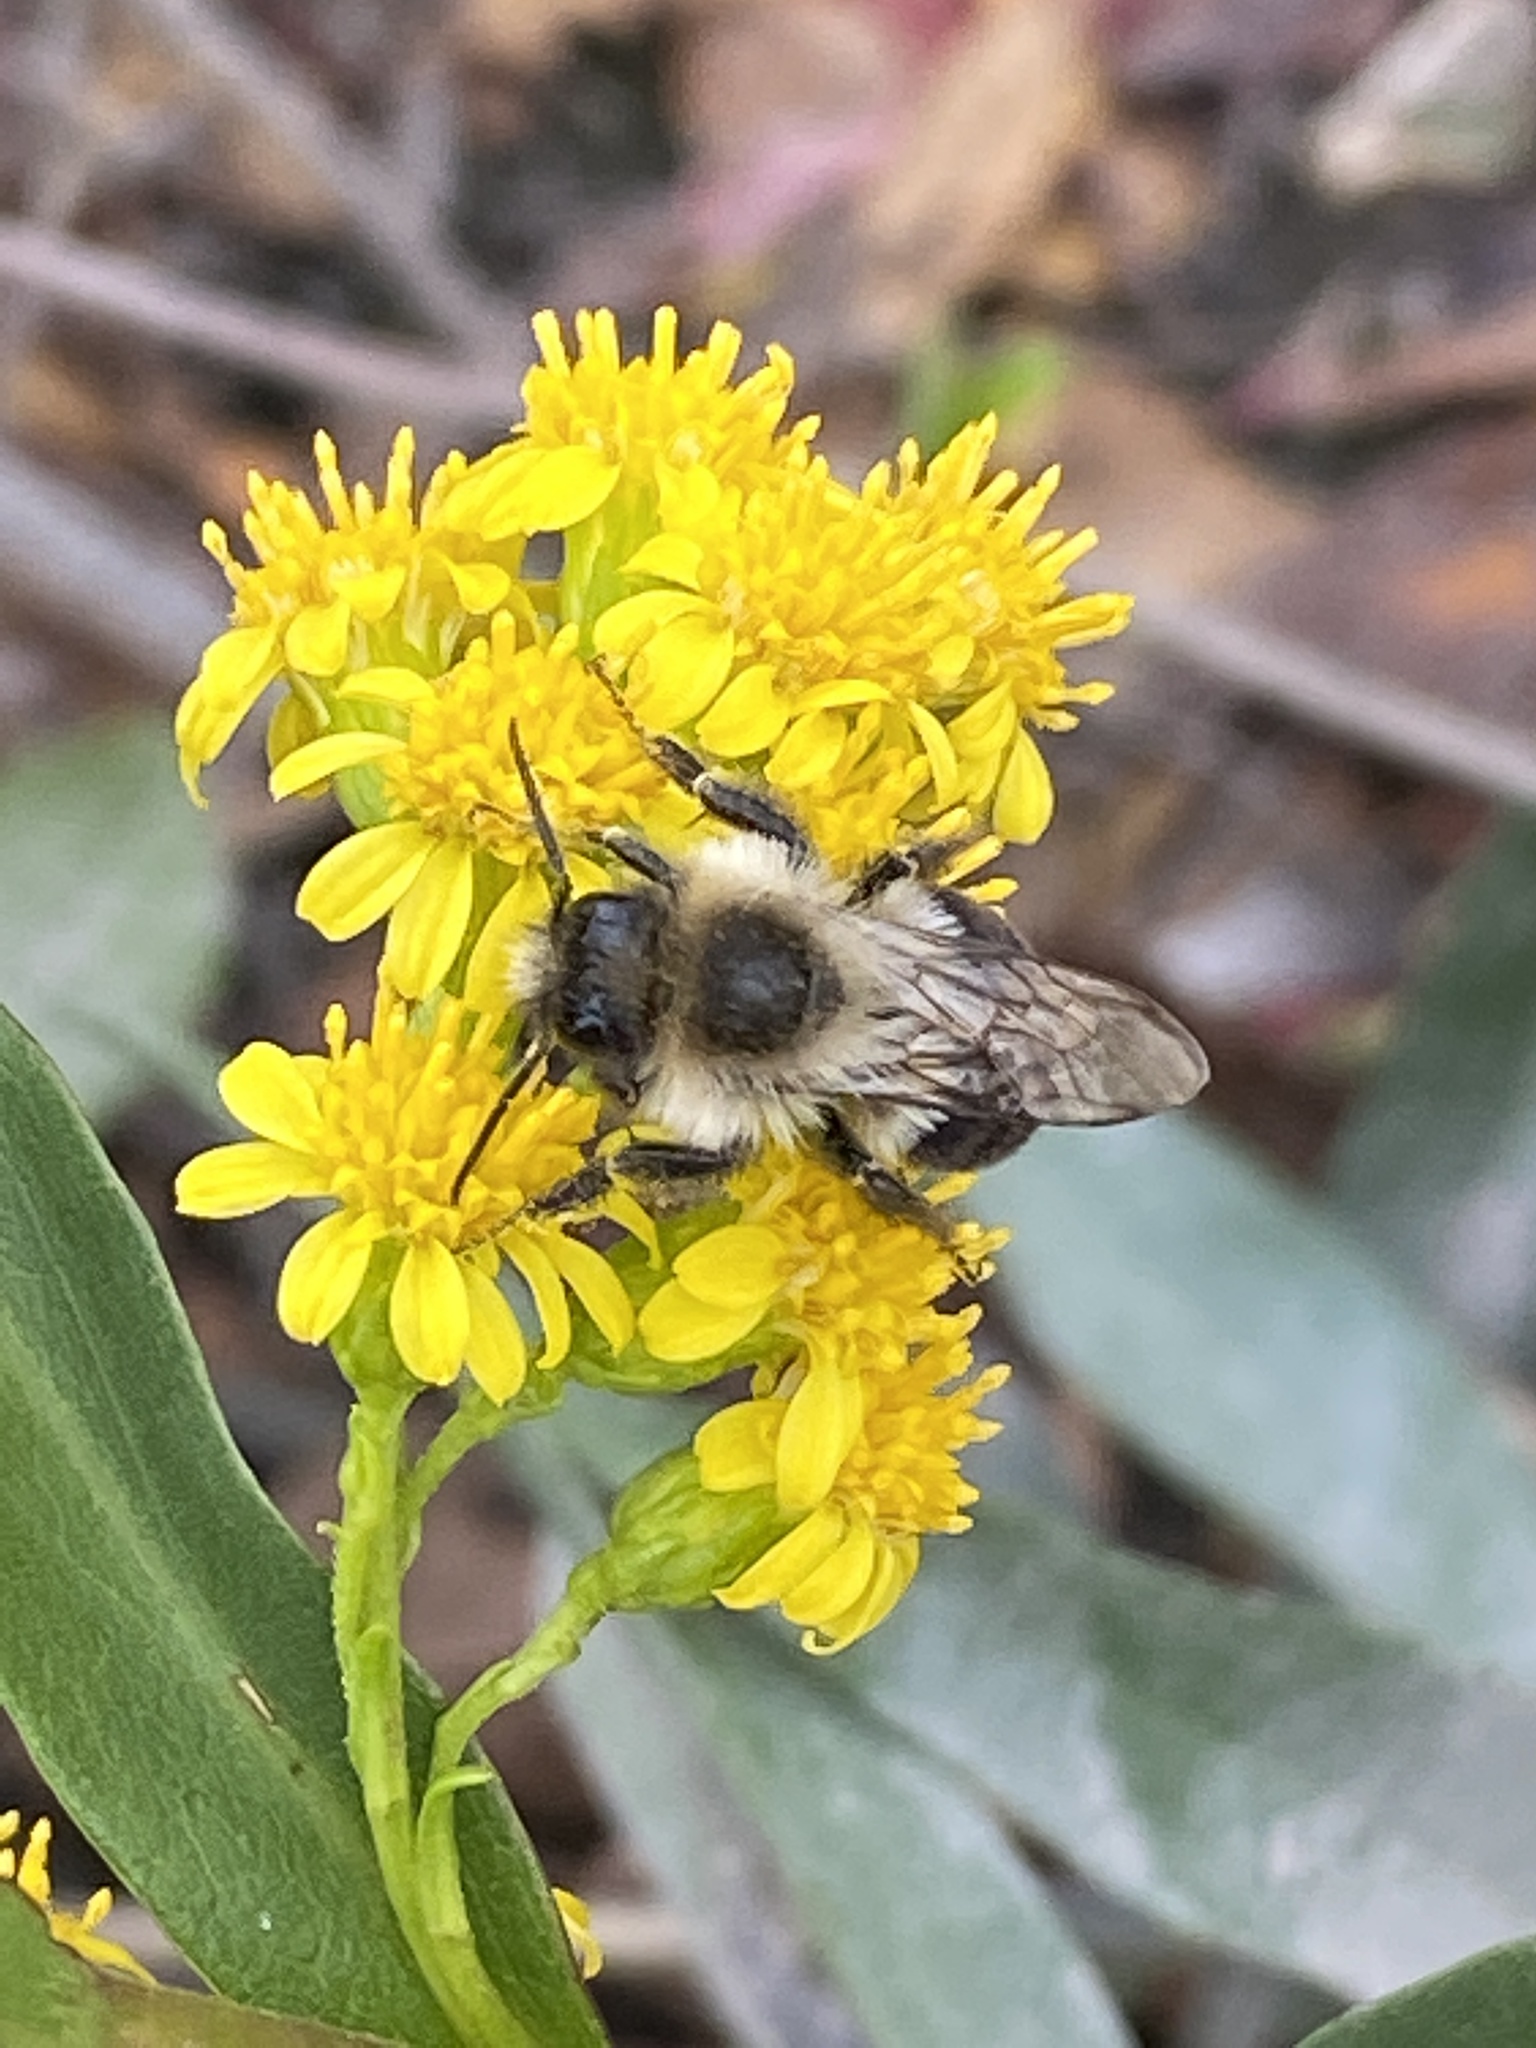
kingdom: Animalia
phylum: Arthropoda
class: Insecta
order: Hymenoptera
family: Apidae
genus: Bombus
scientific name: Bombus impatiens
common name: Common eastern bumble bee
